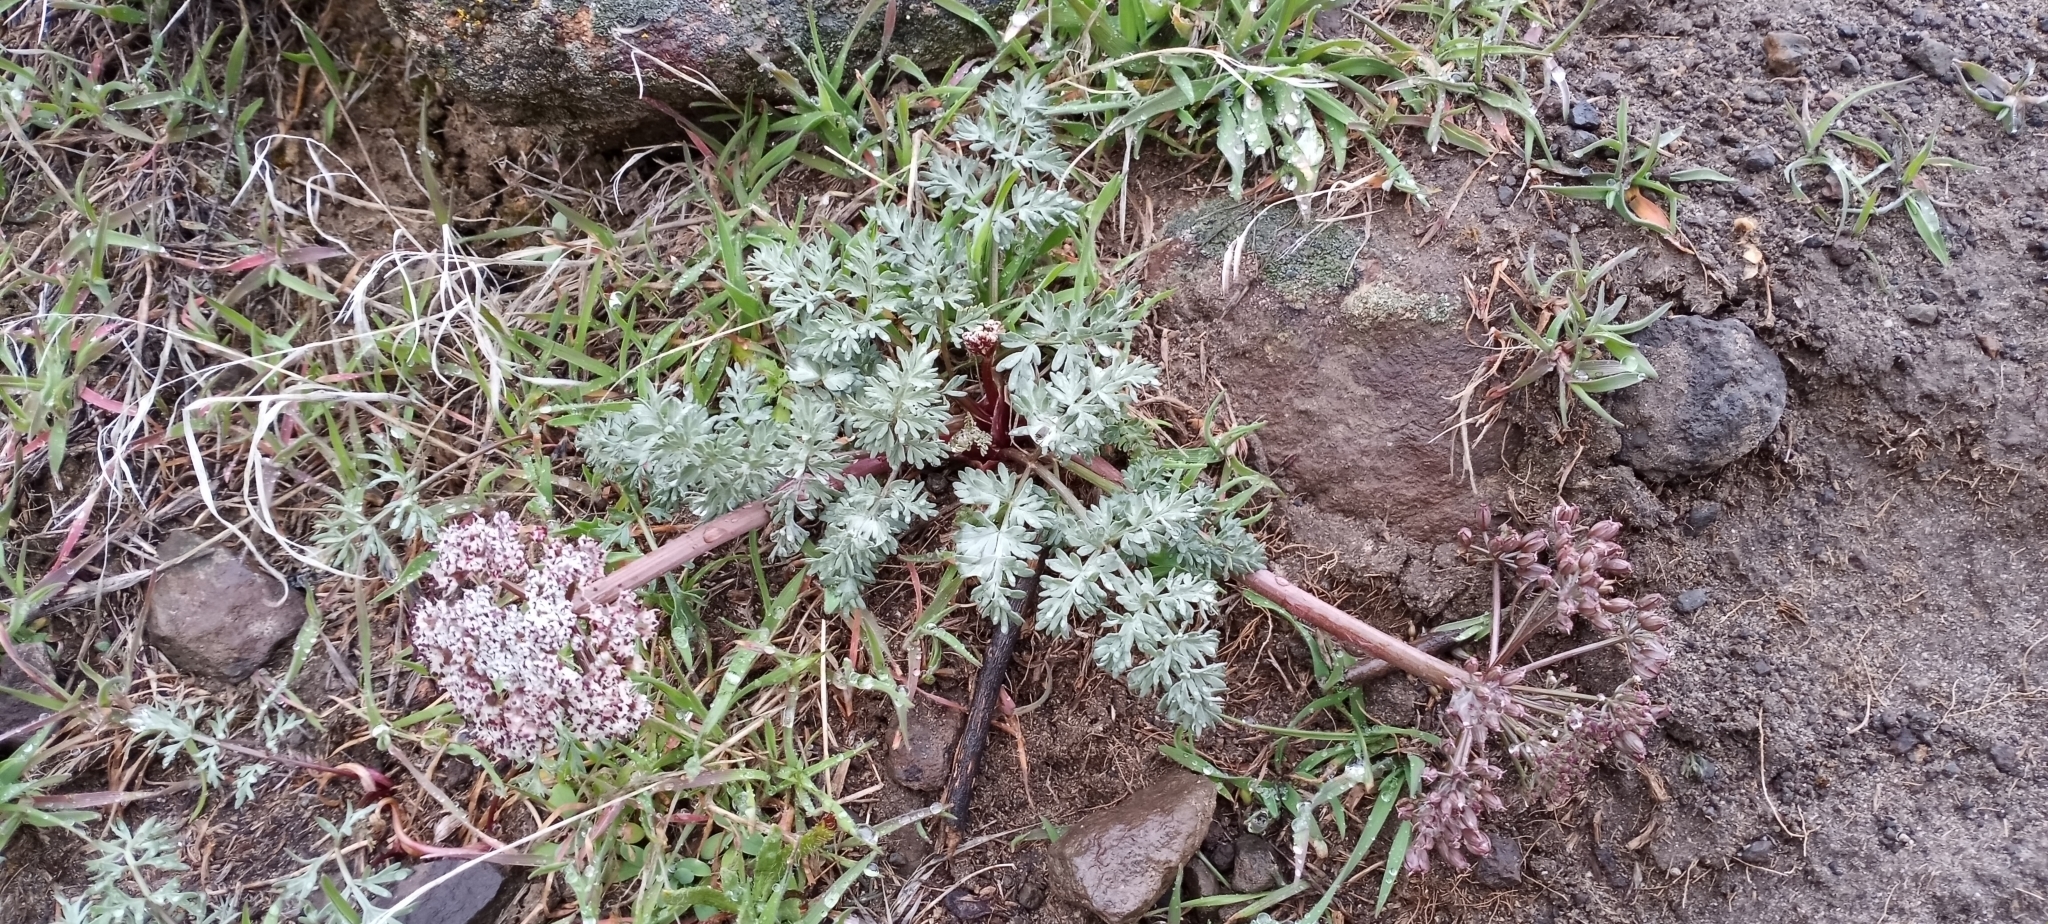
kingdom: Plantae
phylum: Tracheophyta
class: Magnoliopsida
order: Apiales
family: Apiaceae
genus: Lomatium
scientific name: Lomatium canbyi
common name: Chucklusa
